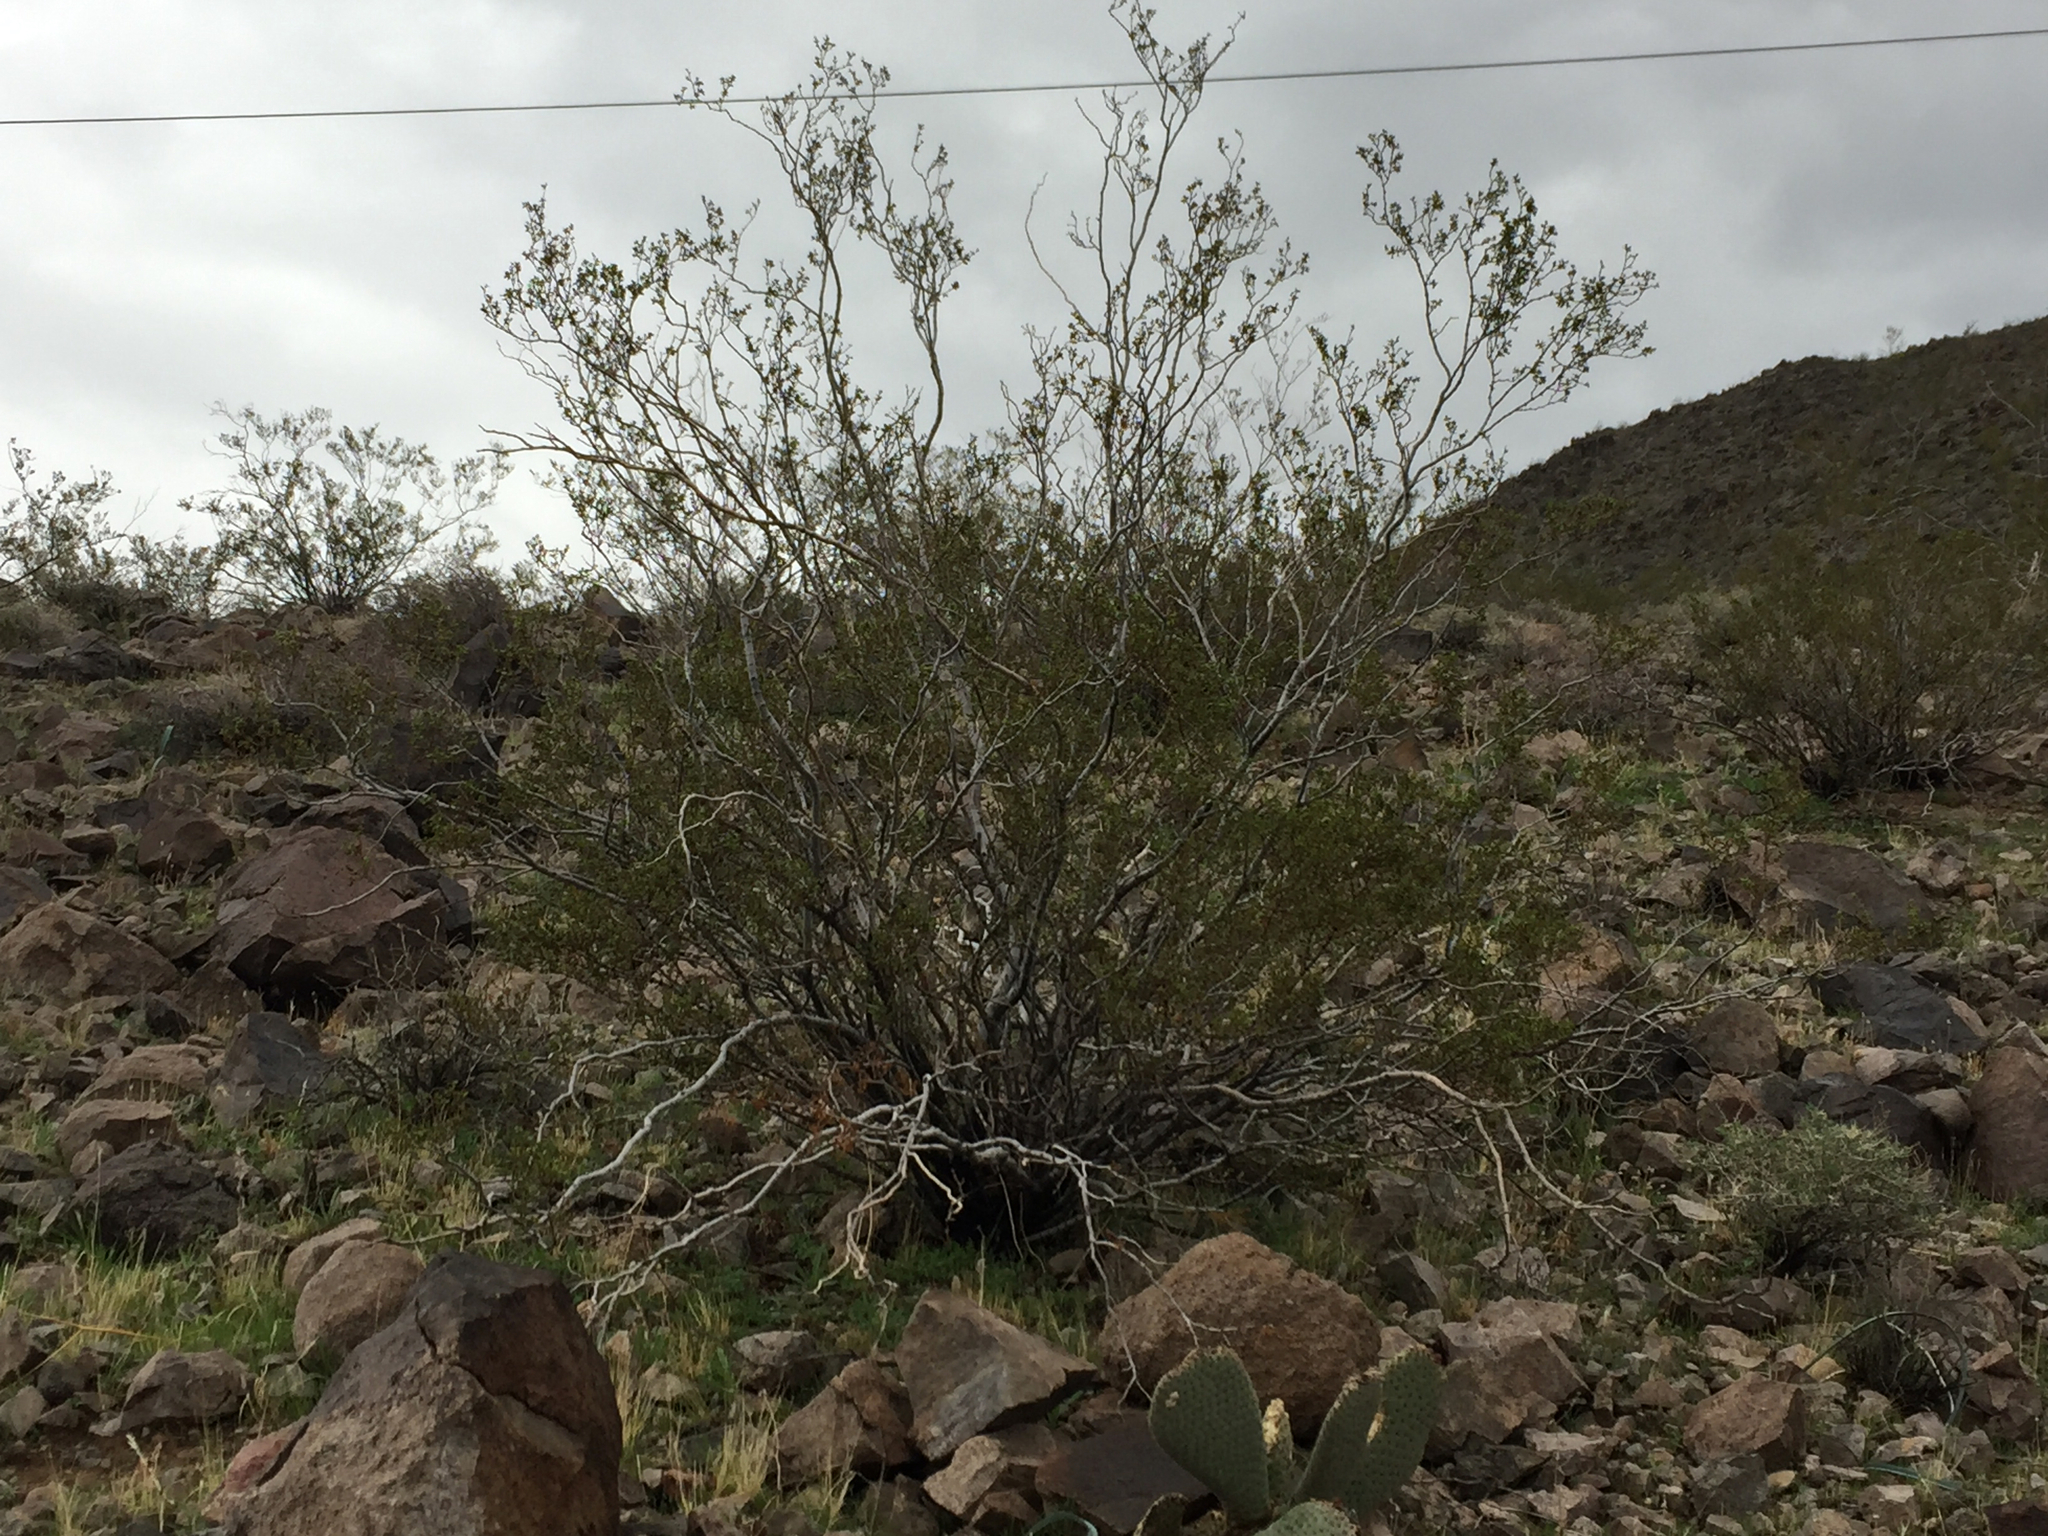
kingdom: Plantae
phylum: Tracheophyta
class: Magnoliopsida
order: Zygophyllales
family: Zygophyllaceae
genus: Larrea
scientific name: Larrea tridentata
